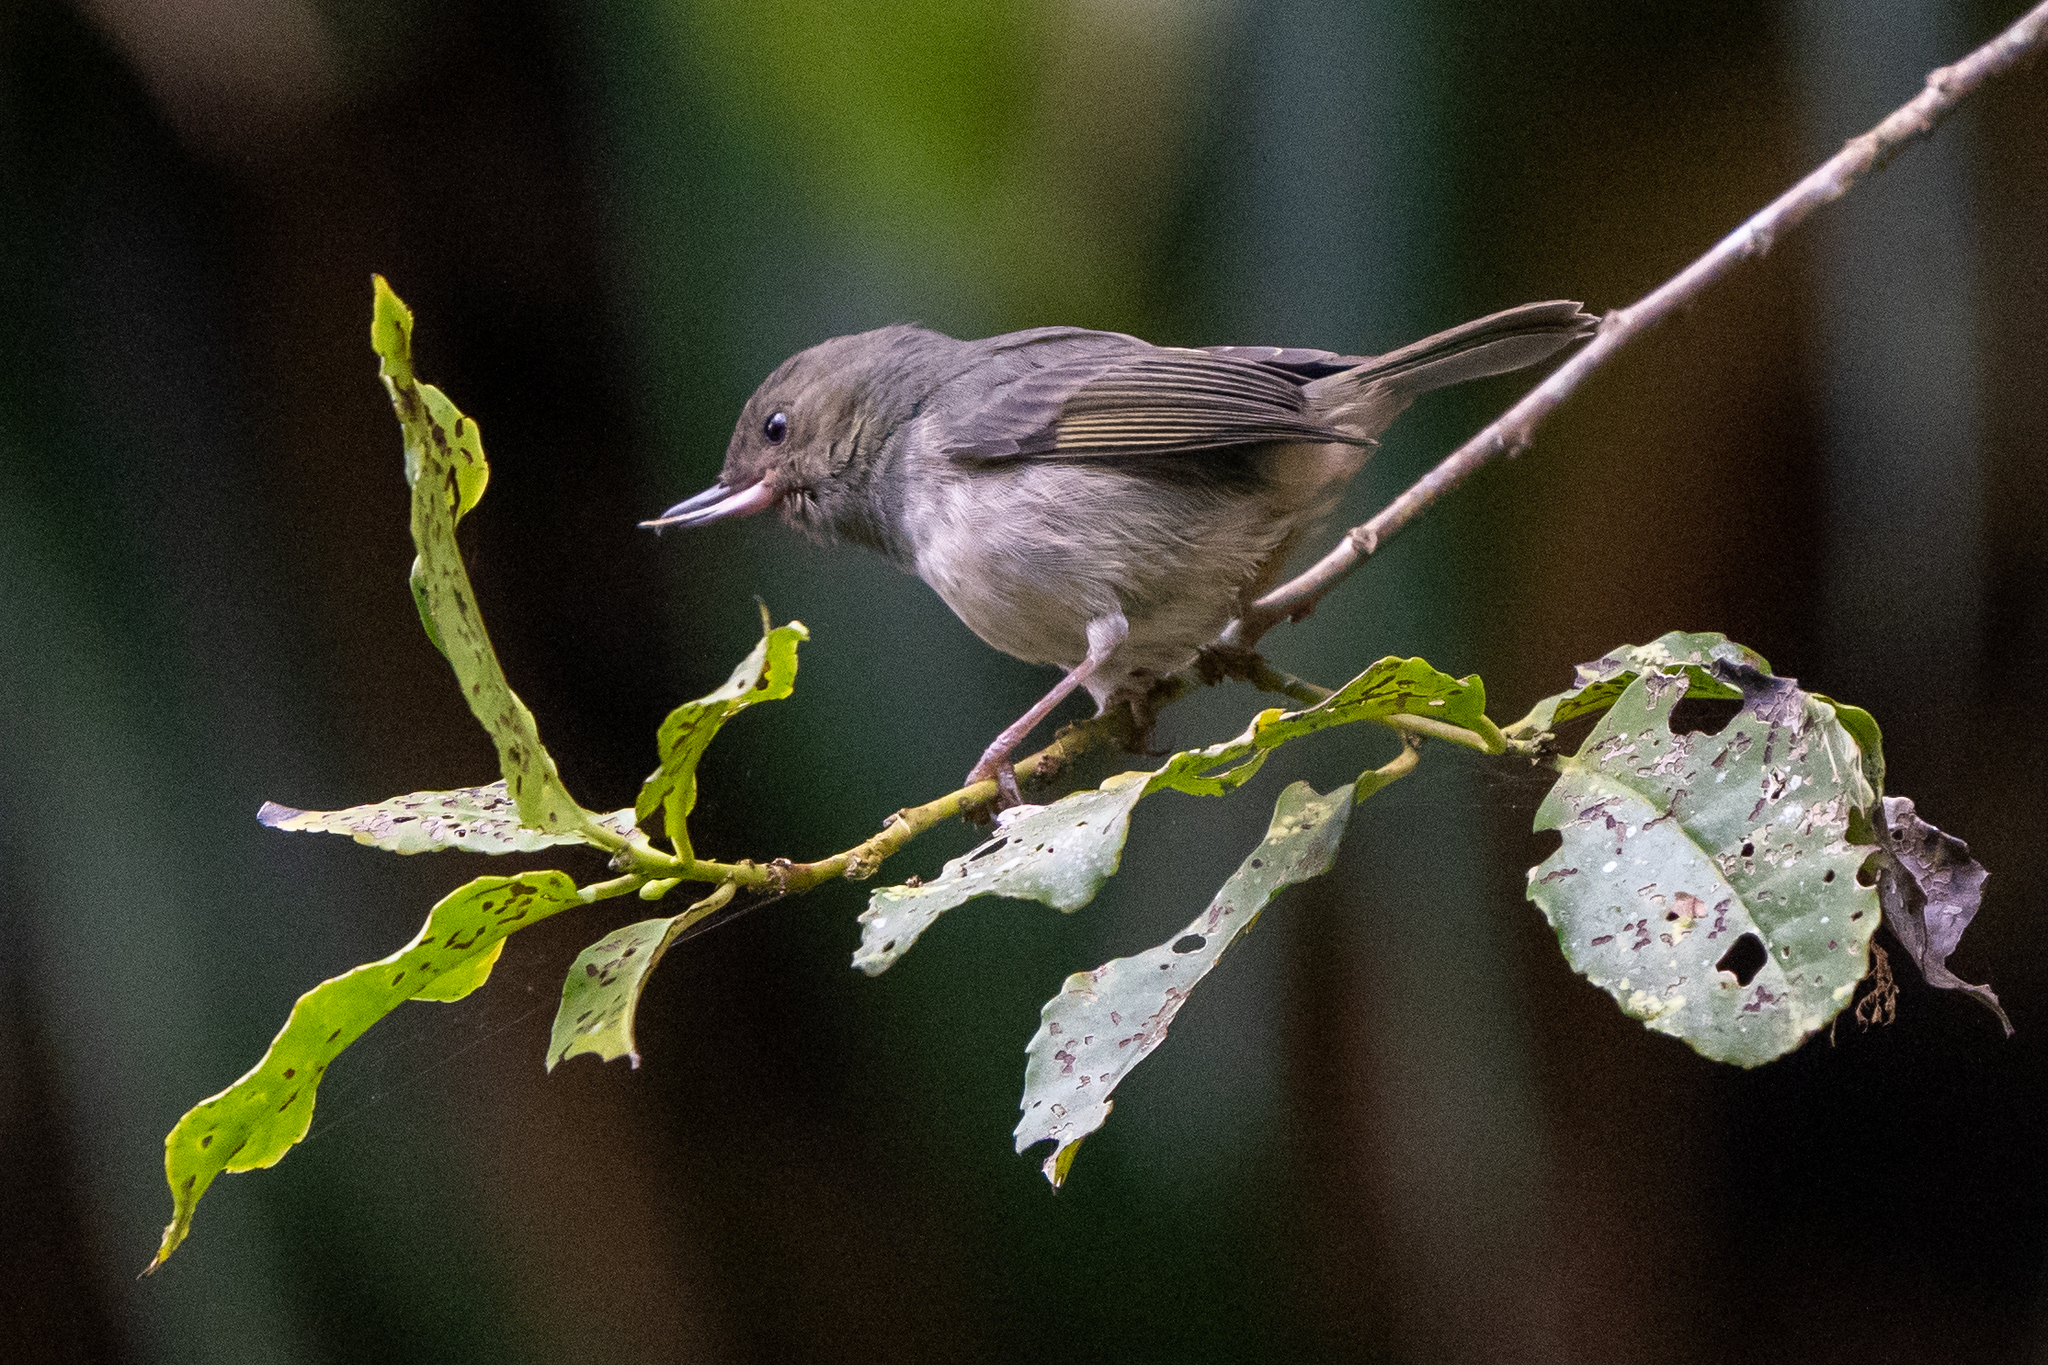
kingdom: Animalia
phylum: Chordata
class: Aves
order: Passeriformes
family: Thraupidae
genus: Diglossa
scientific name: Diglossa plumbea
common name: Slaty flowerpiercer
